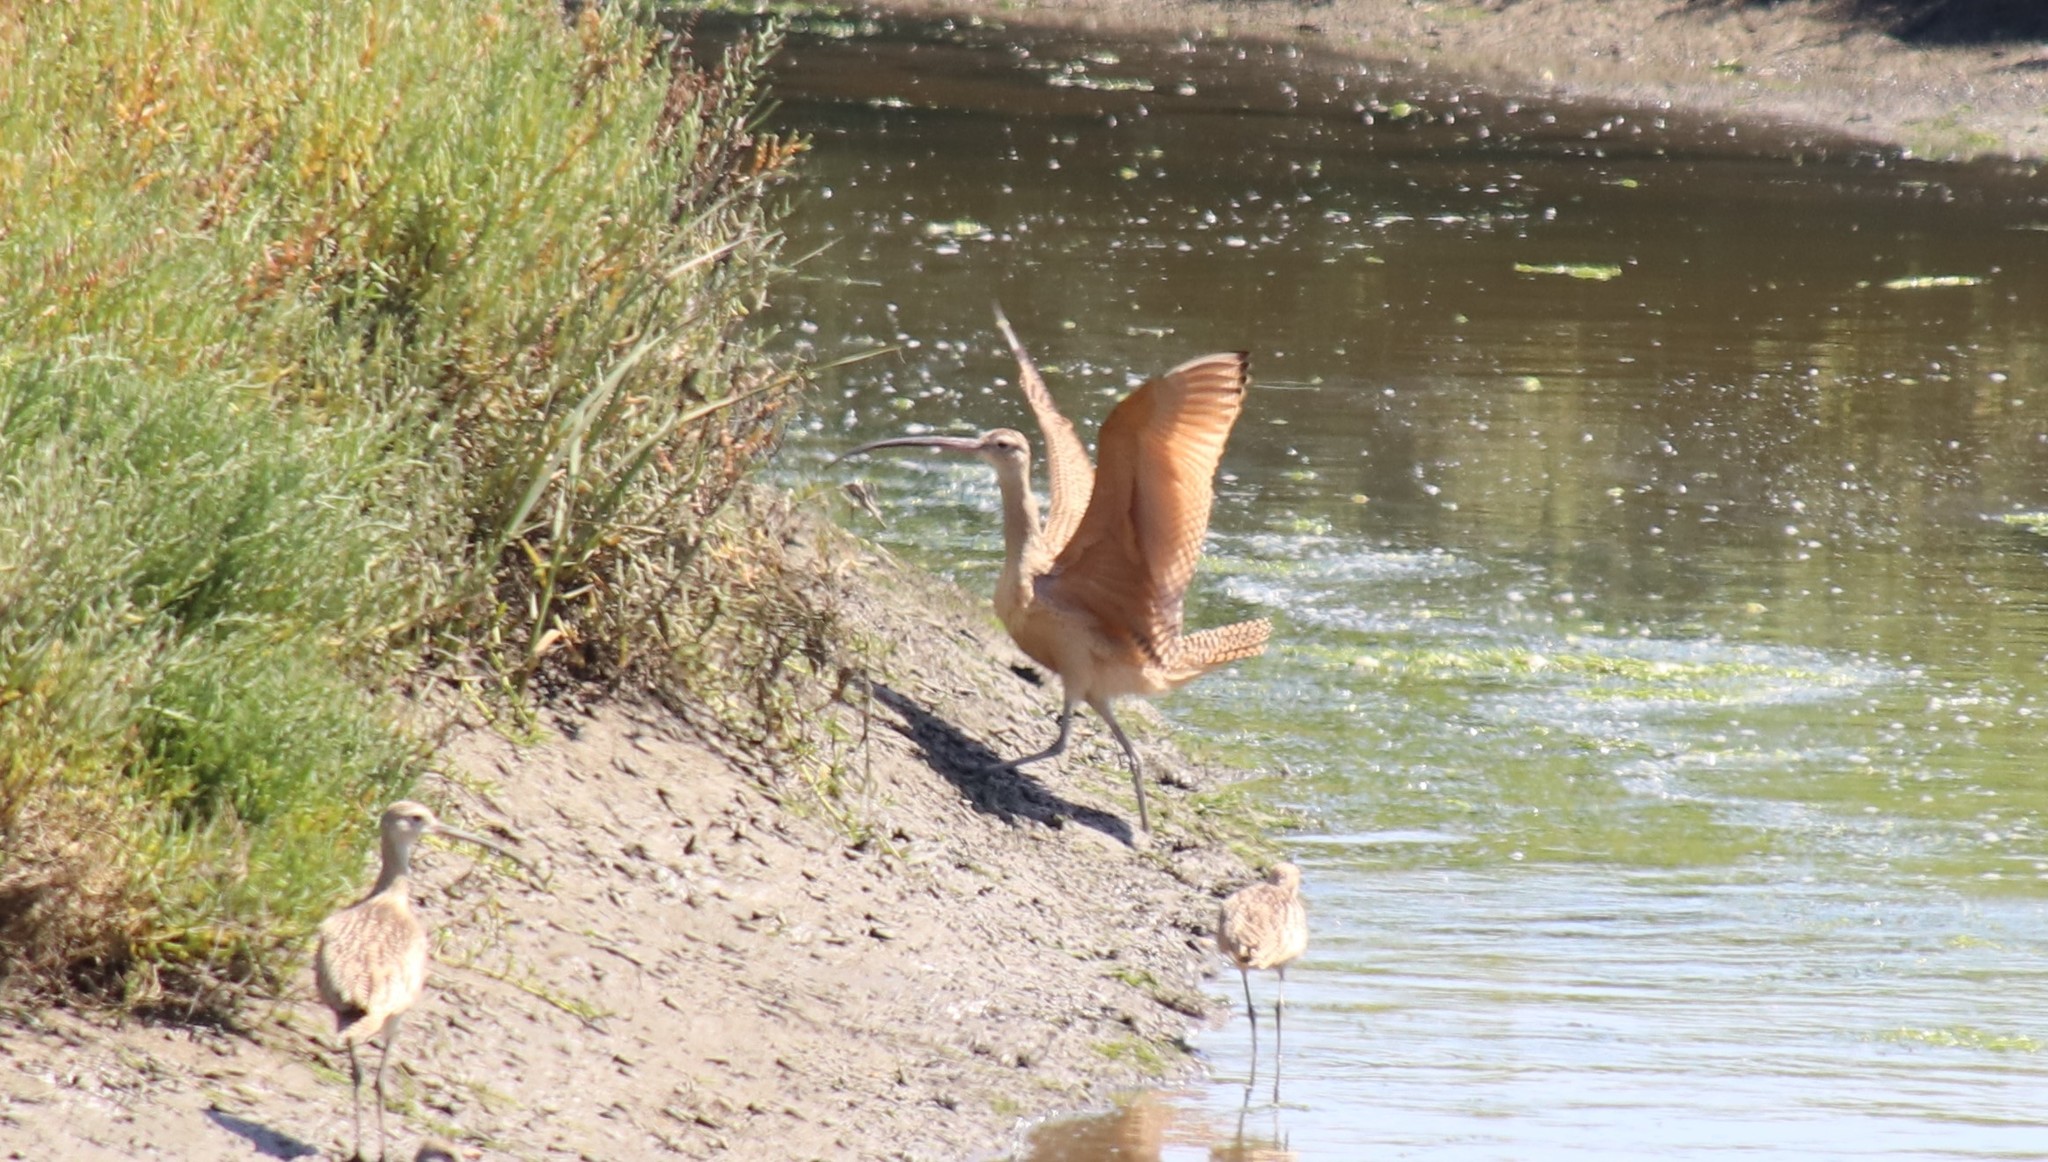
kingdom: Animalia
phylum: Chordata
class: Aves
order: Charadriiformes
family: Scolopacidae
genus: Numenius
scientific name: Numenius americanus
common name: Long-billed curlew
